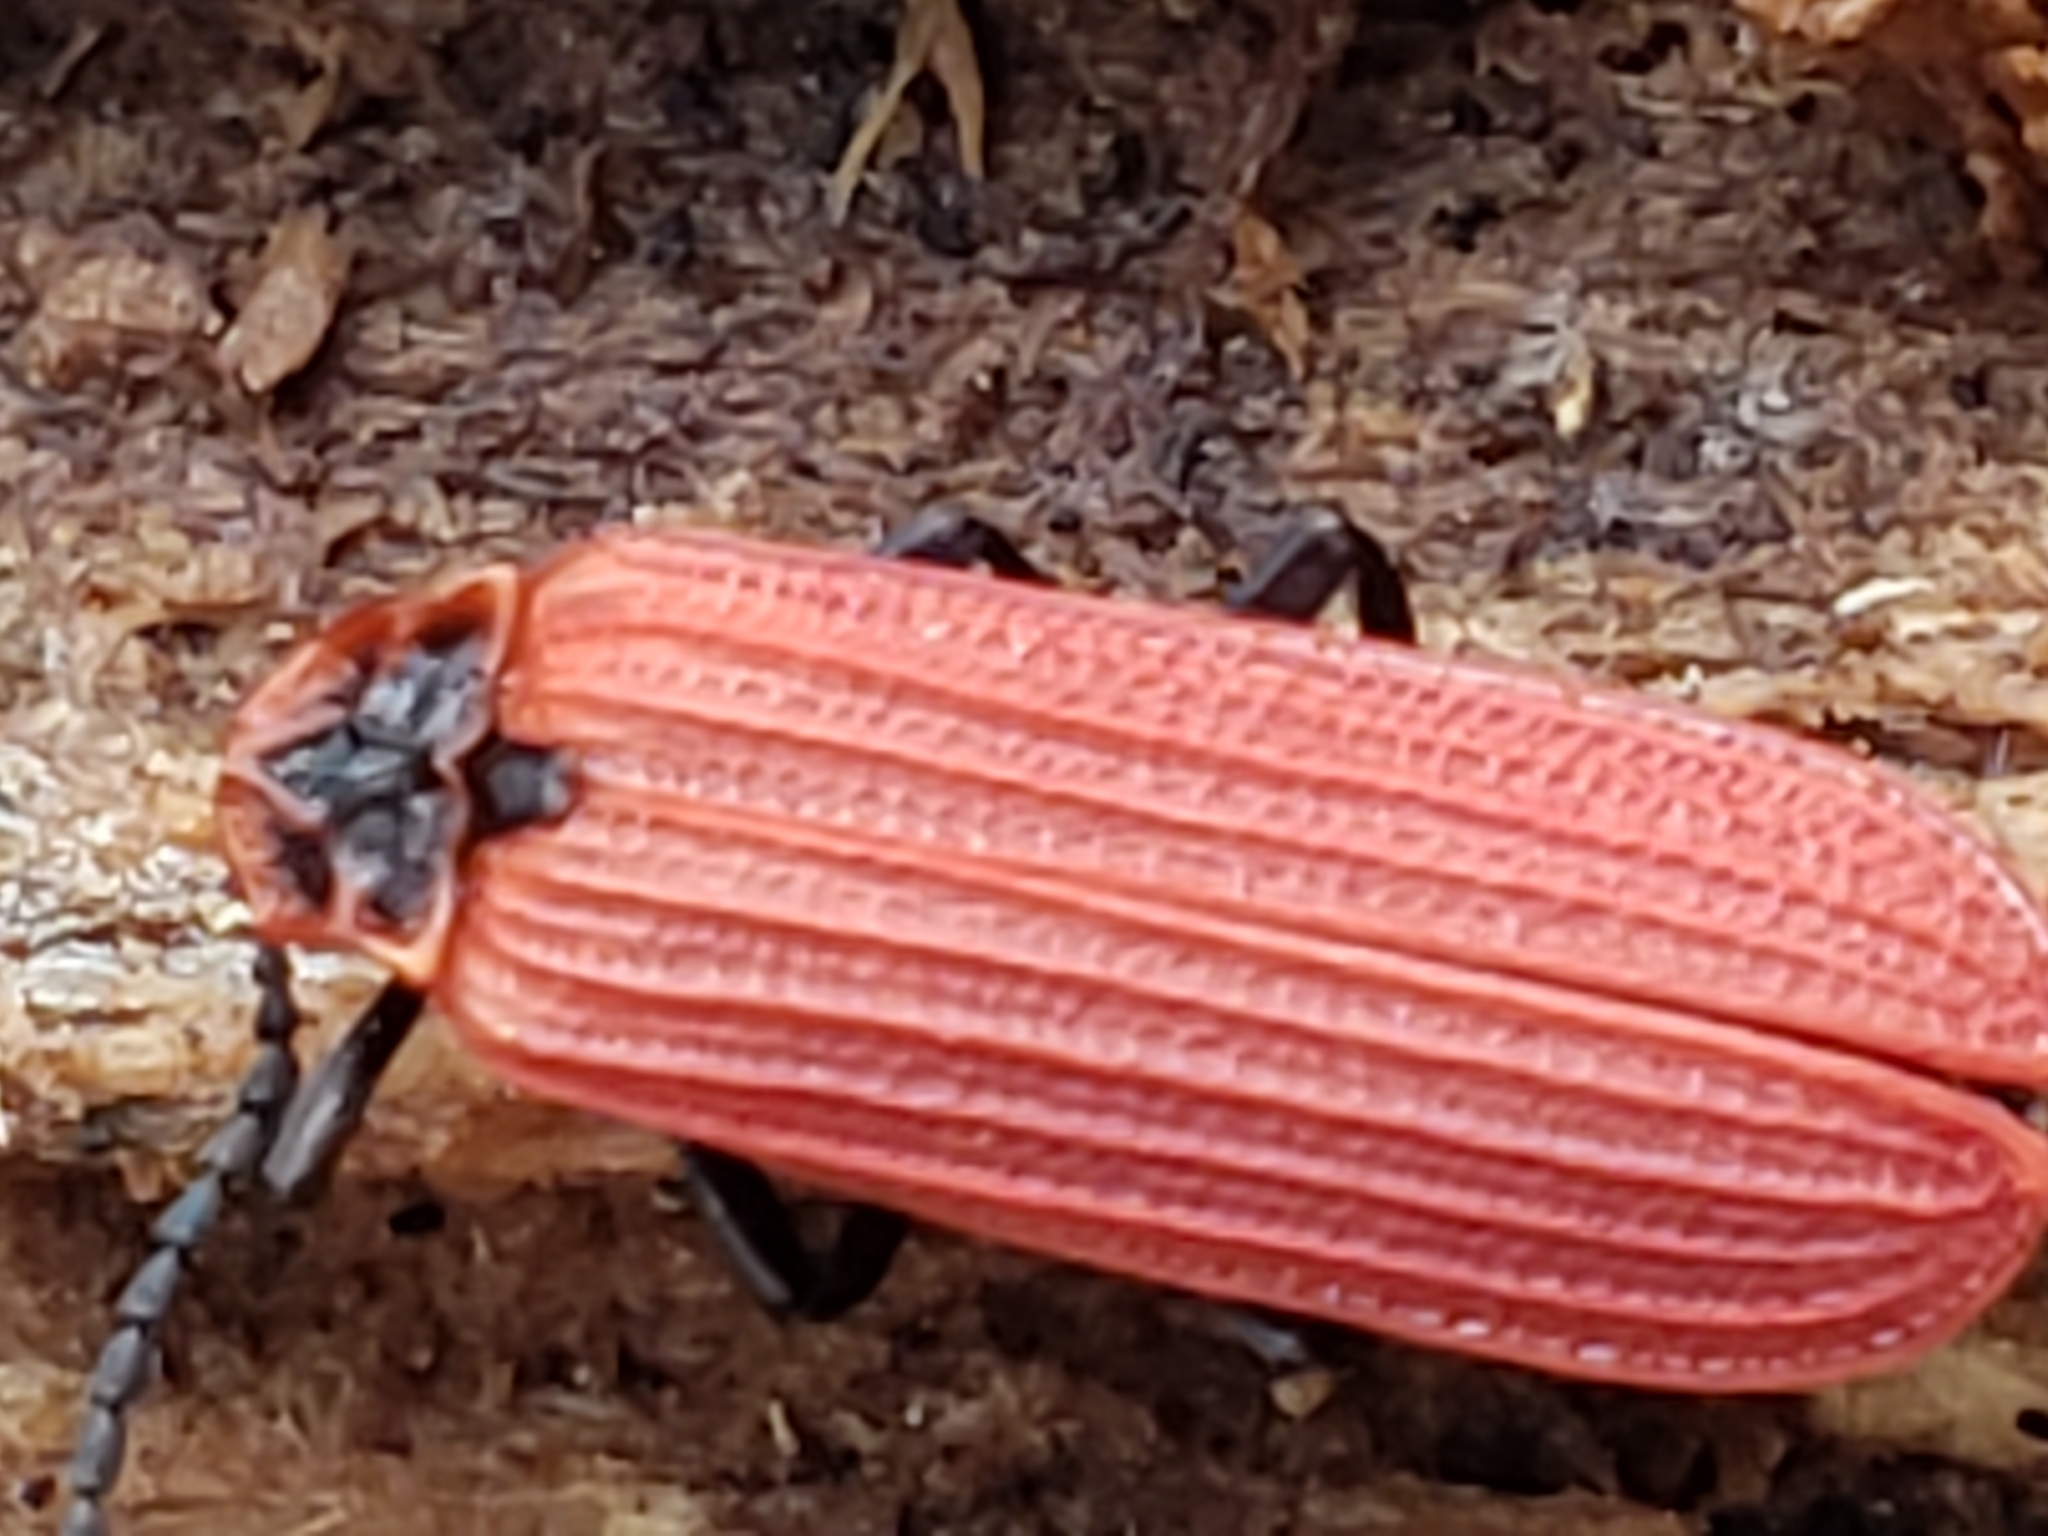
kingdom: Animalia
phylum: Arthropoda
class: Insecta
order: Coleoptera
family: Lycidae
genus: Dictyoptera
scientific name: Dictyoptera aurora
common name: Golden net-winged beetle
